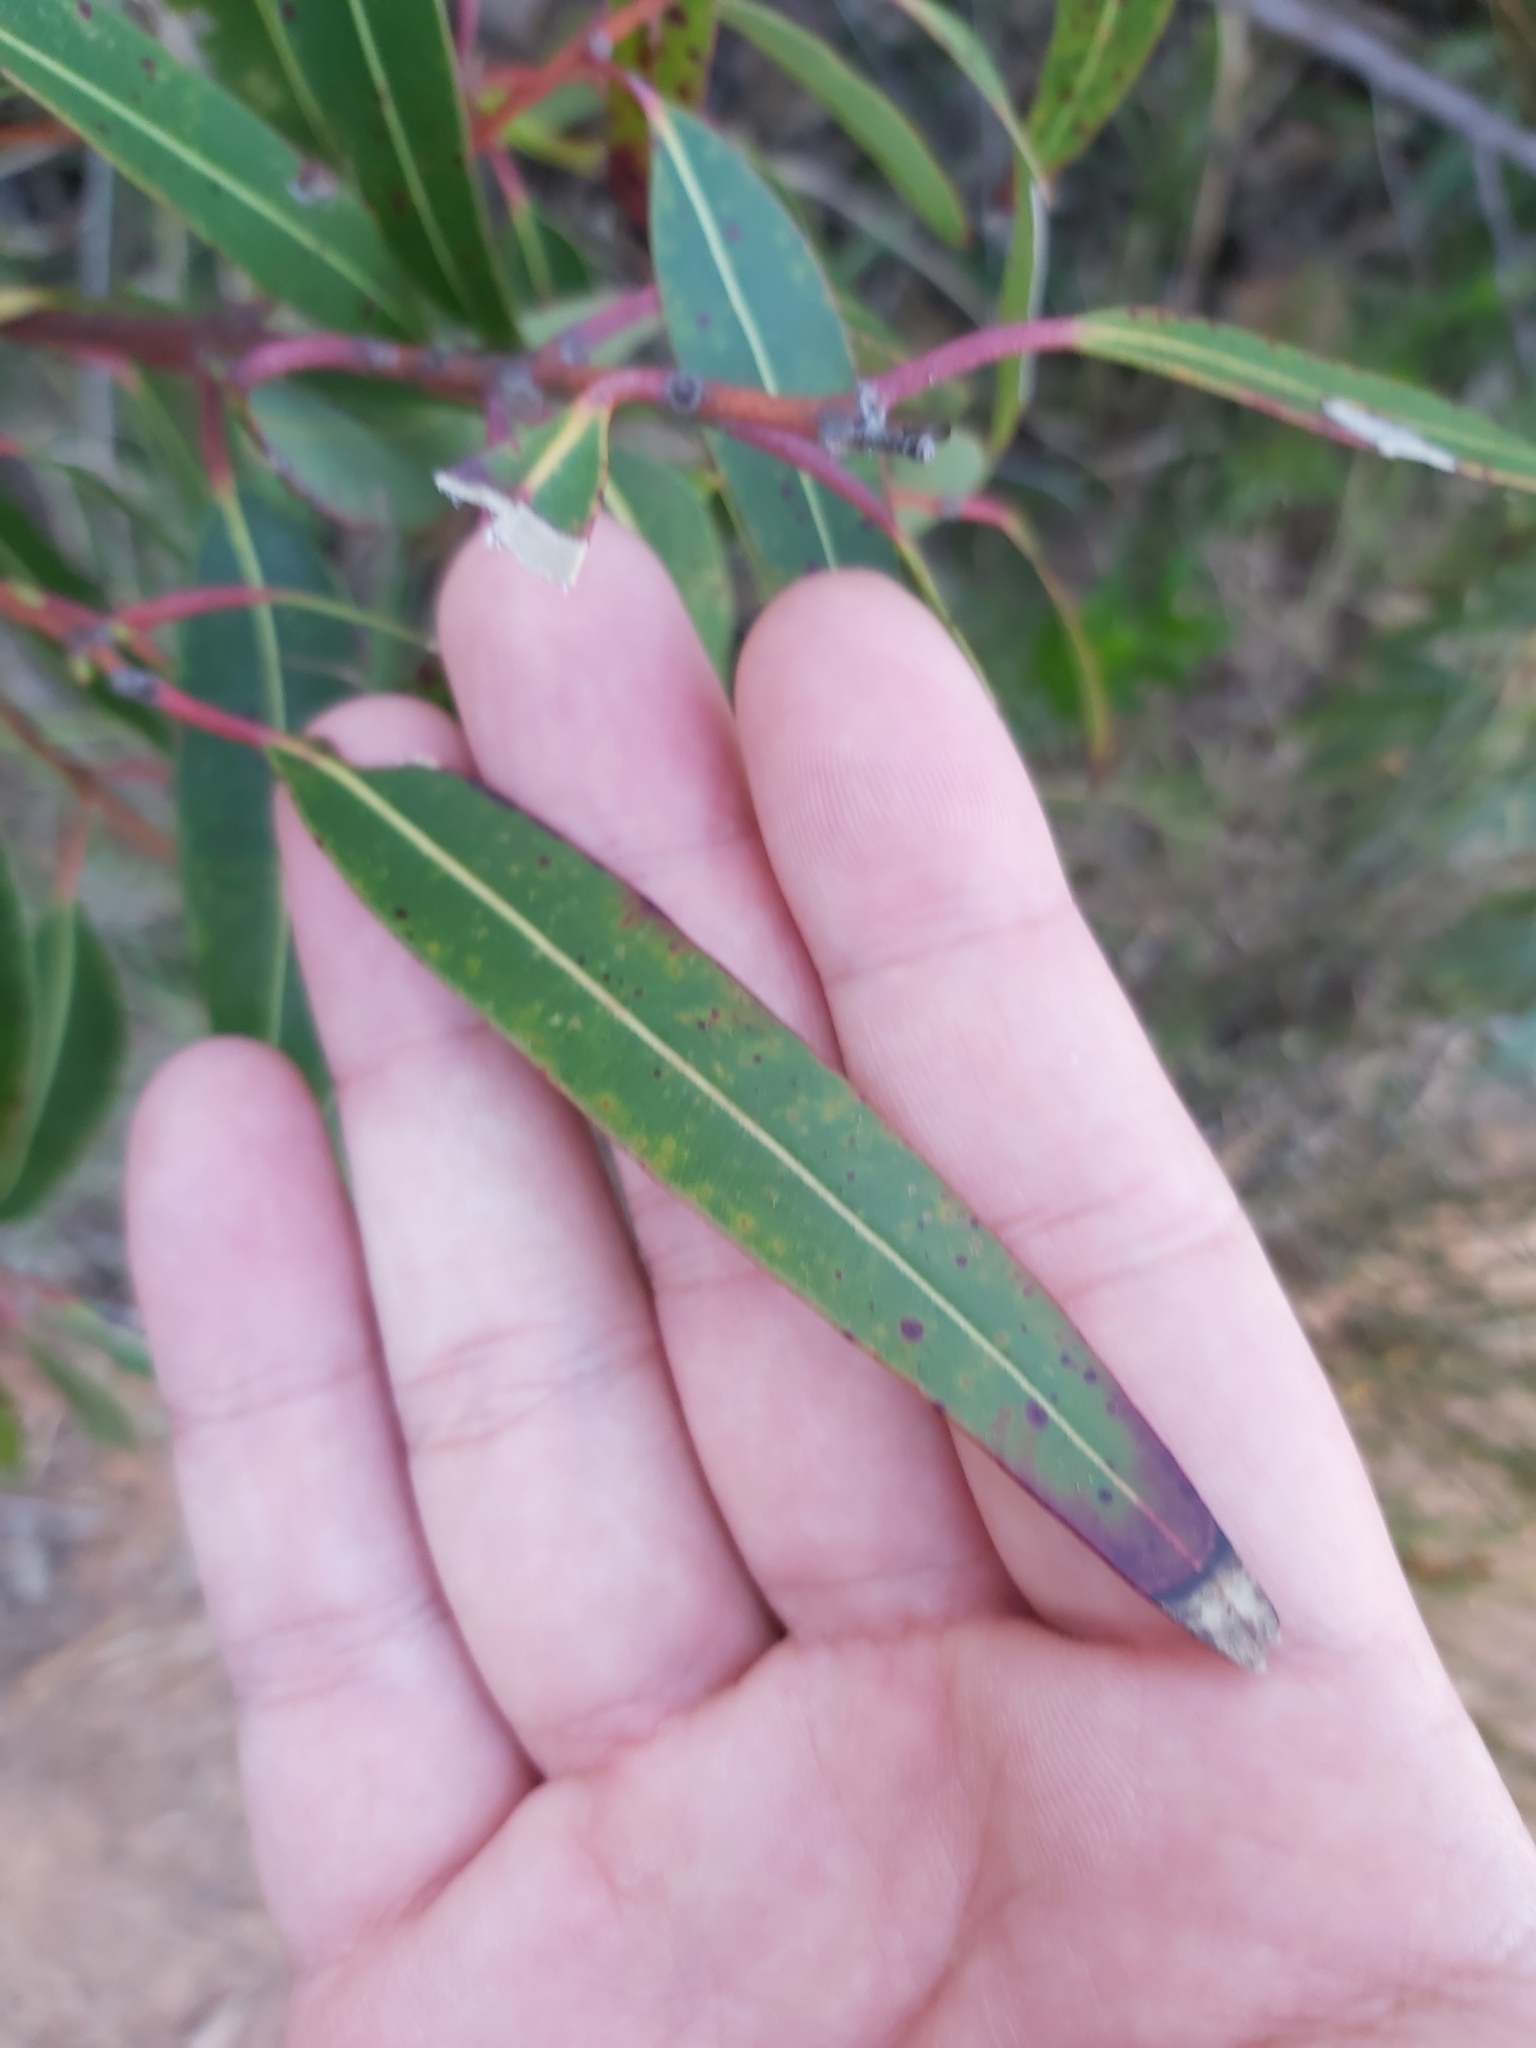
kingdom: Plantae
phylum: Tracheophyta
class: Magnoliopsida
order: Myrtales
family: Myrtaceae
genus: Angophora
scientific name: Angophora costata
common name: Gum myrtle
